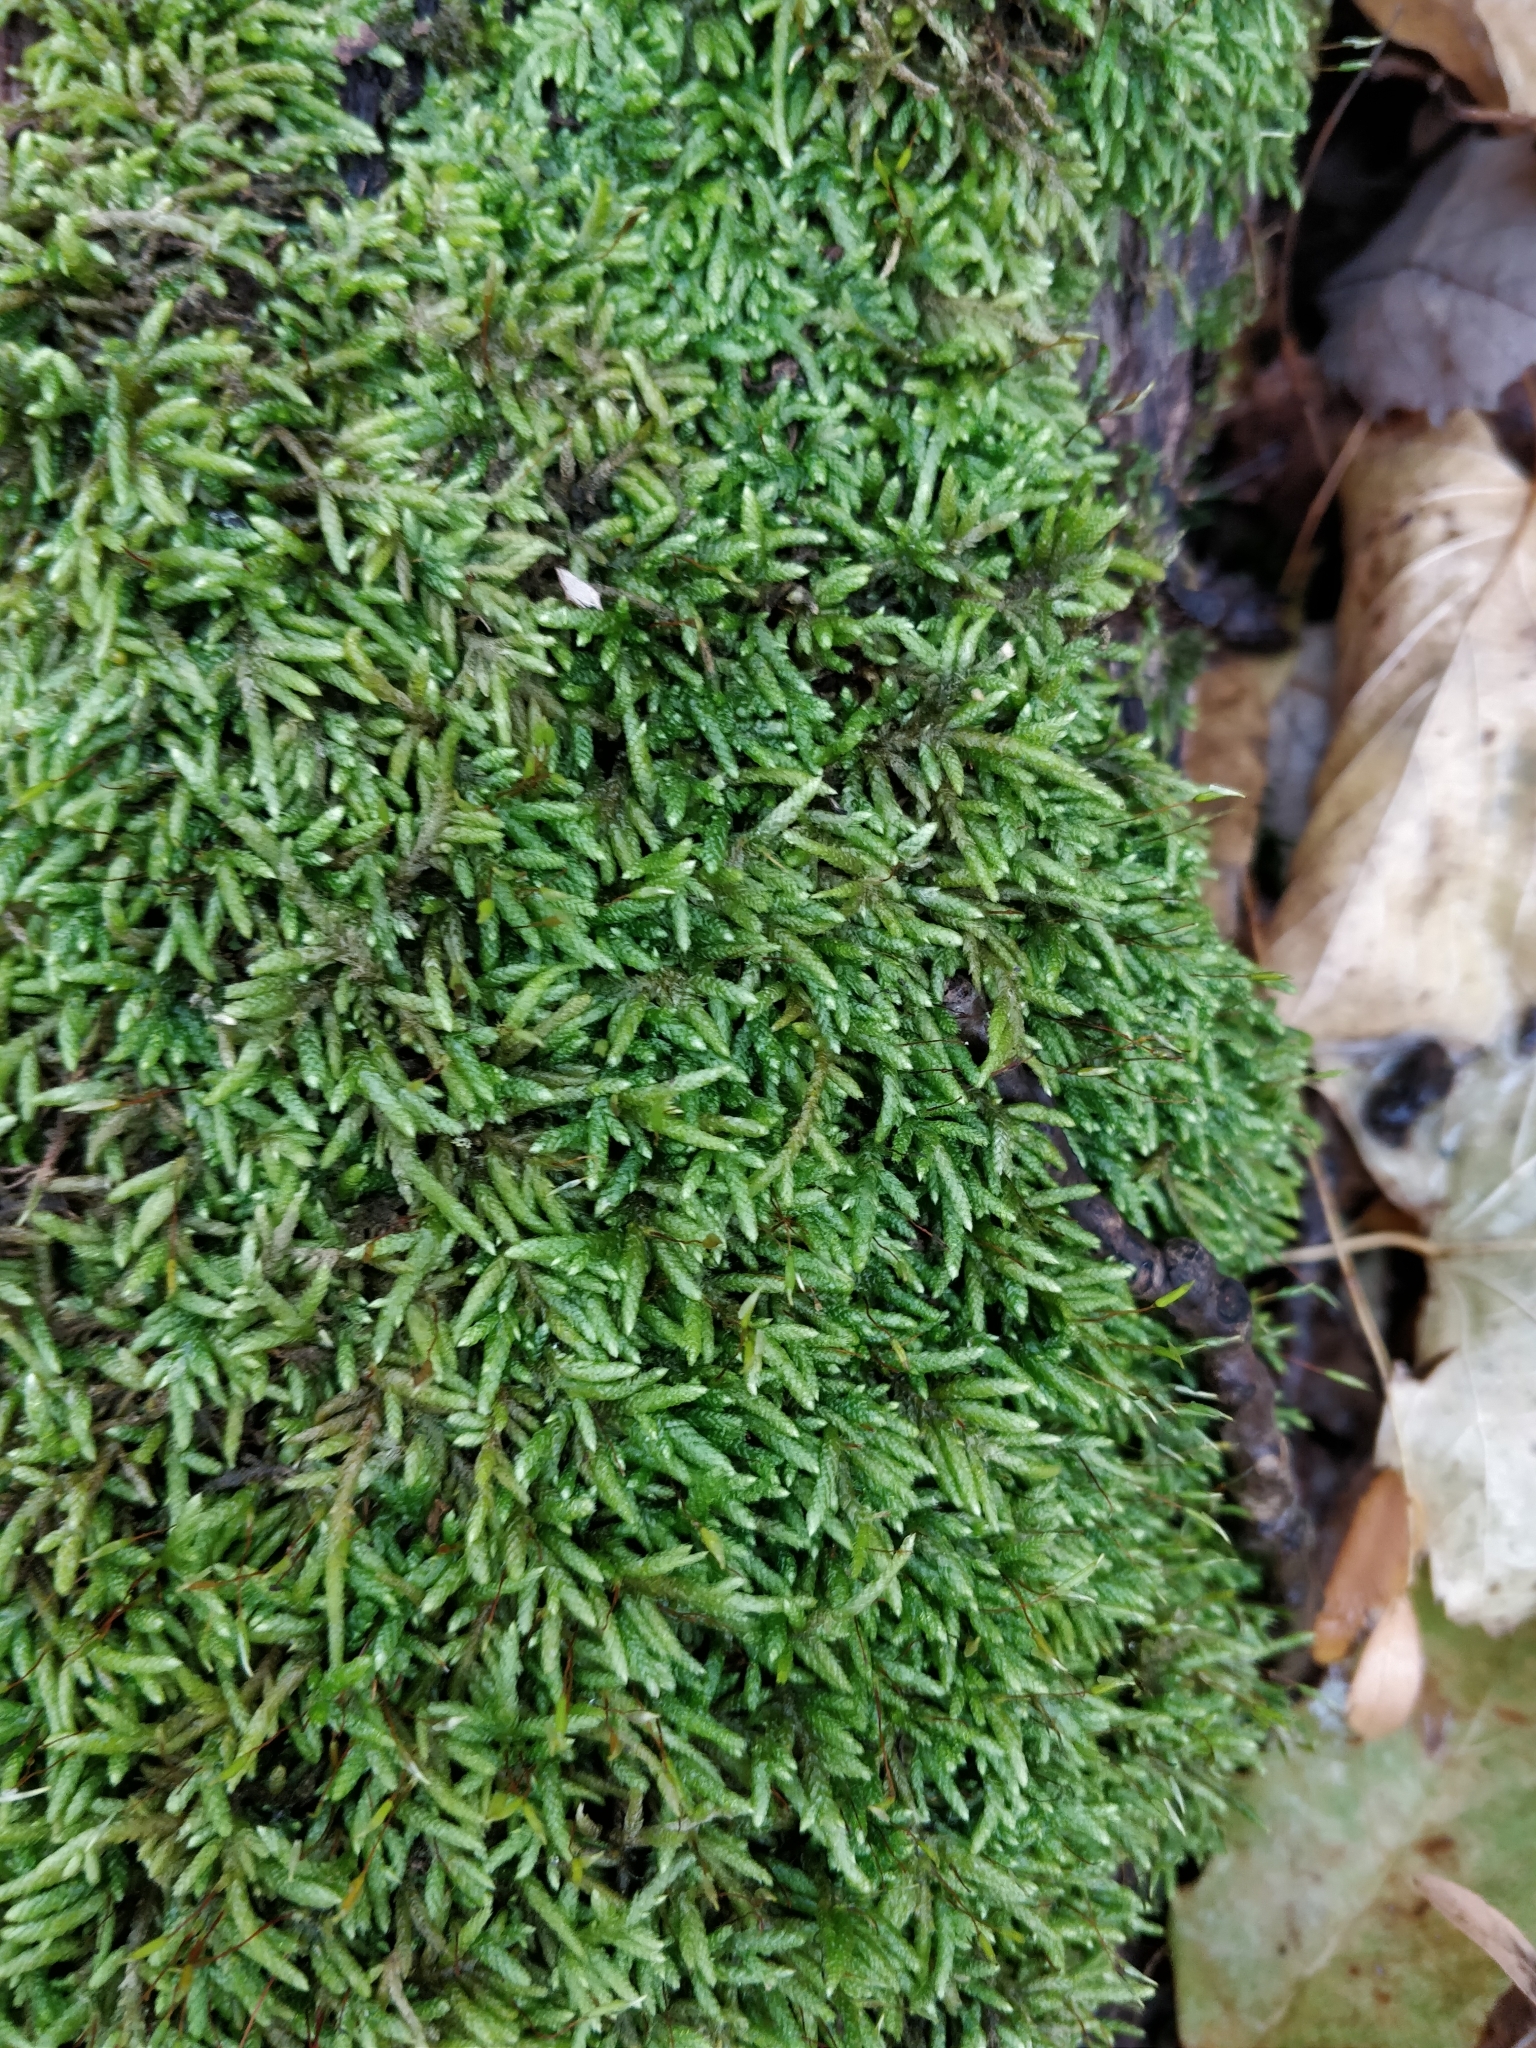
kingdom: Plantae
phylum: Bryophyta
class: Bryopsida
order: Hypnales
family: Entodontaceae
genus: Entodon
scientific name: Entodon seductrix
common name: Round-stemmed entodon moss
